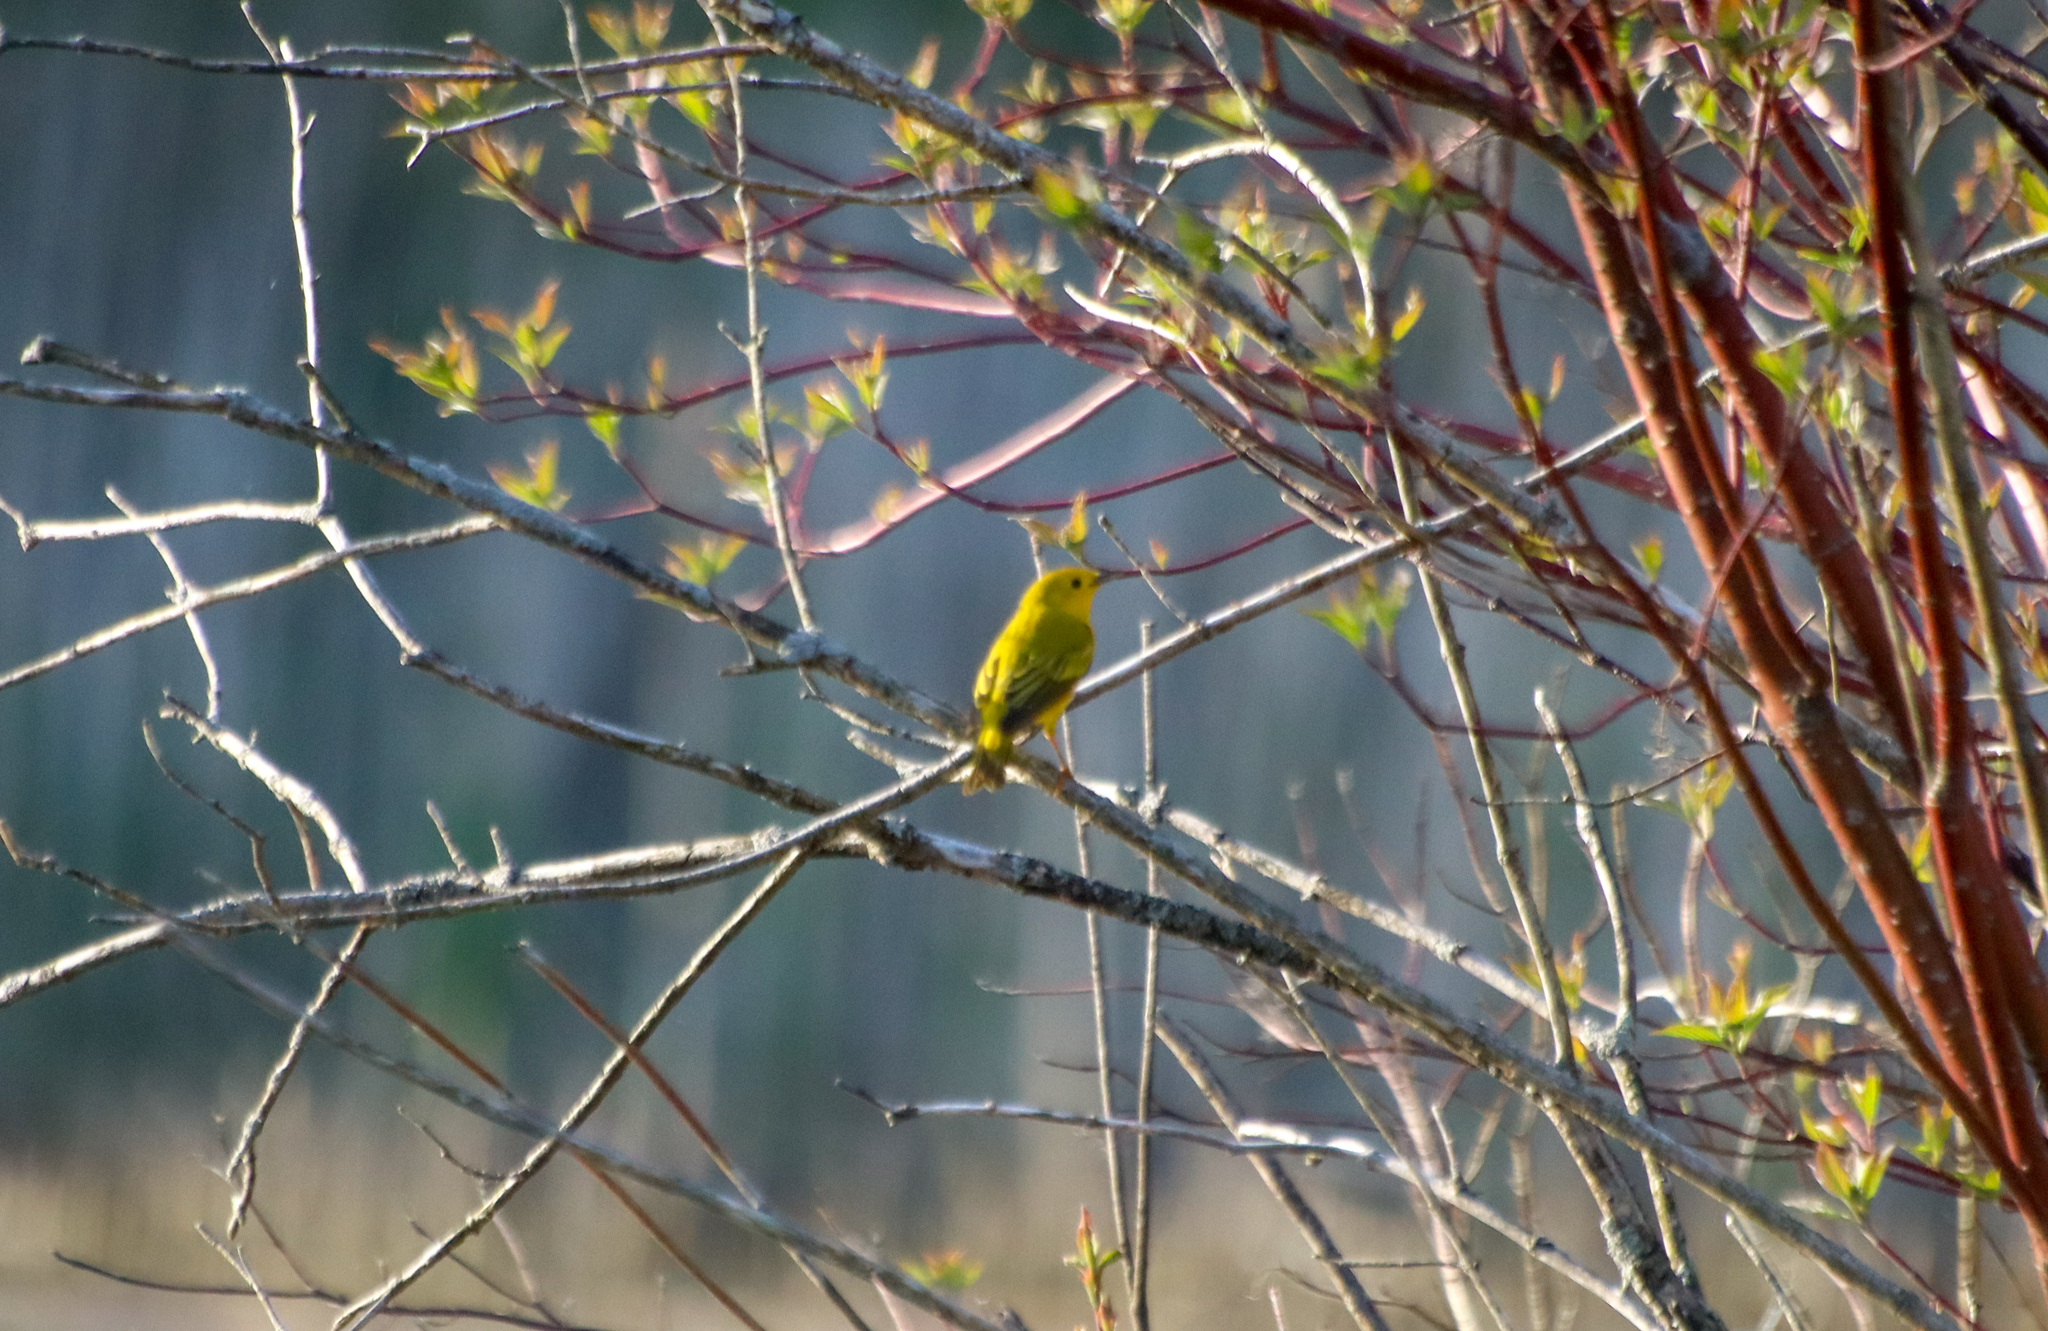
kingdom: Animalia
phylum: Chordata
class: Aves
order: Passeriformes
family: Parulidae
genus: Setophaga
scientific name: Setophaga petechia
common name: Yellow warbler
